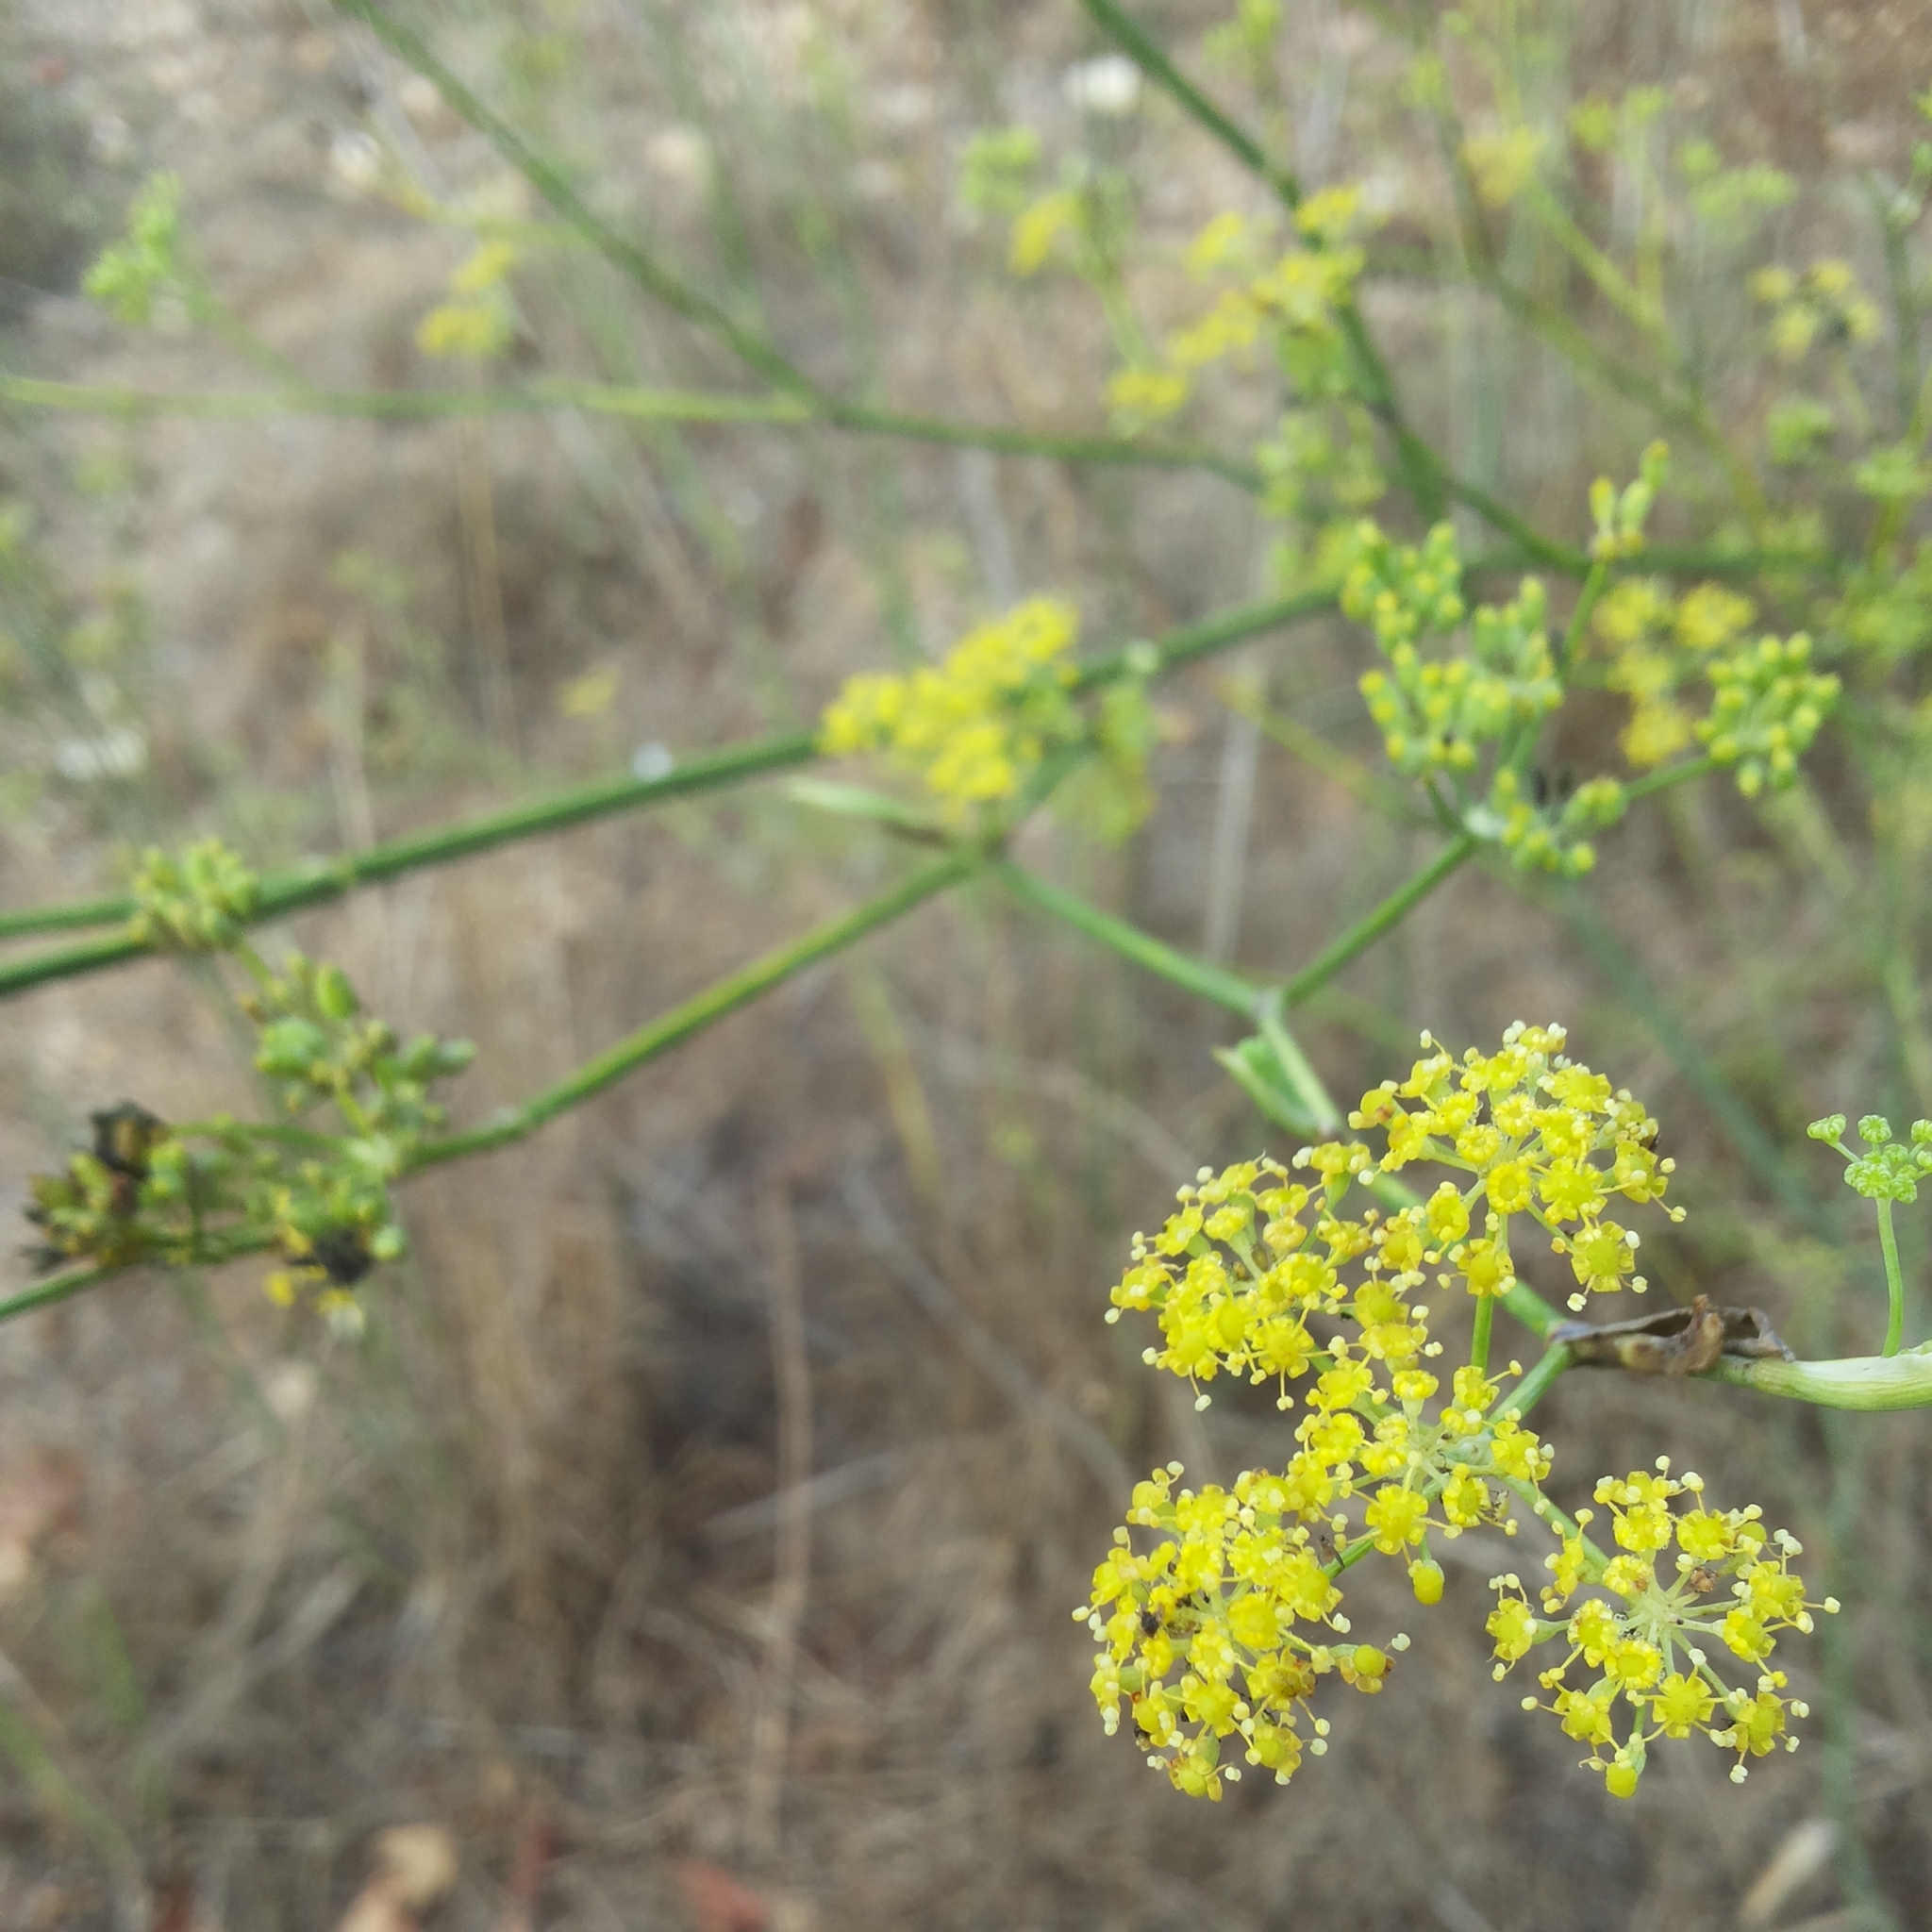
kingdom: Plantae
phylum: Tracheophyta
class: Magnoliopsida
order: Apiales
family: Apiaceae
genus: Foeniculum
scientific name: Foeniculum vulgare
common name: Fennel
